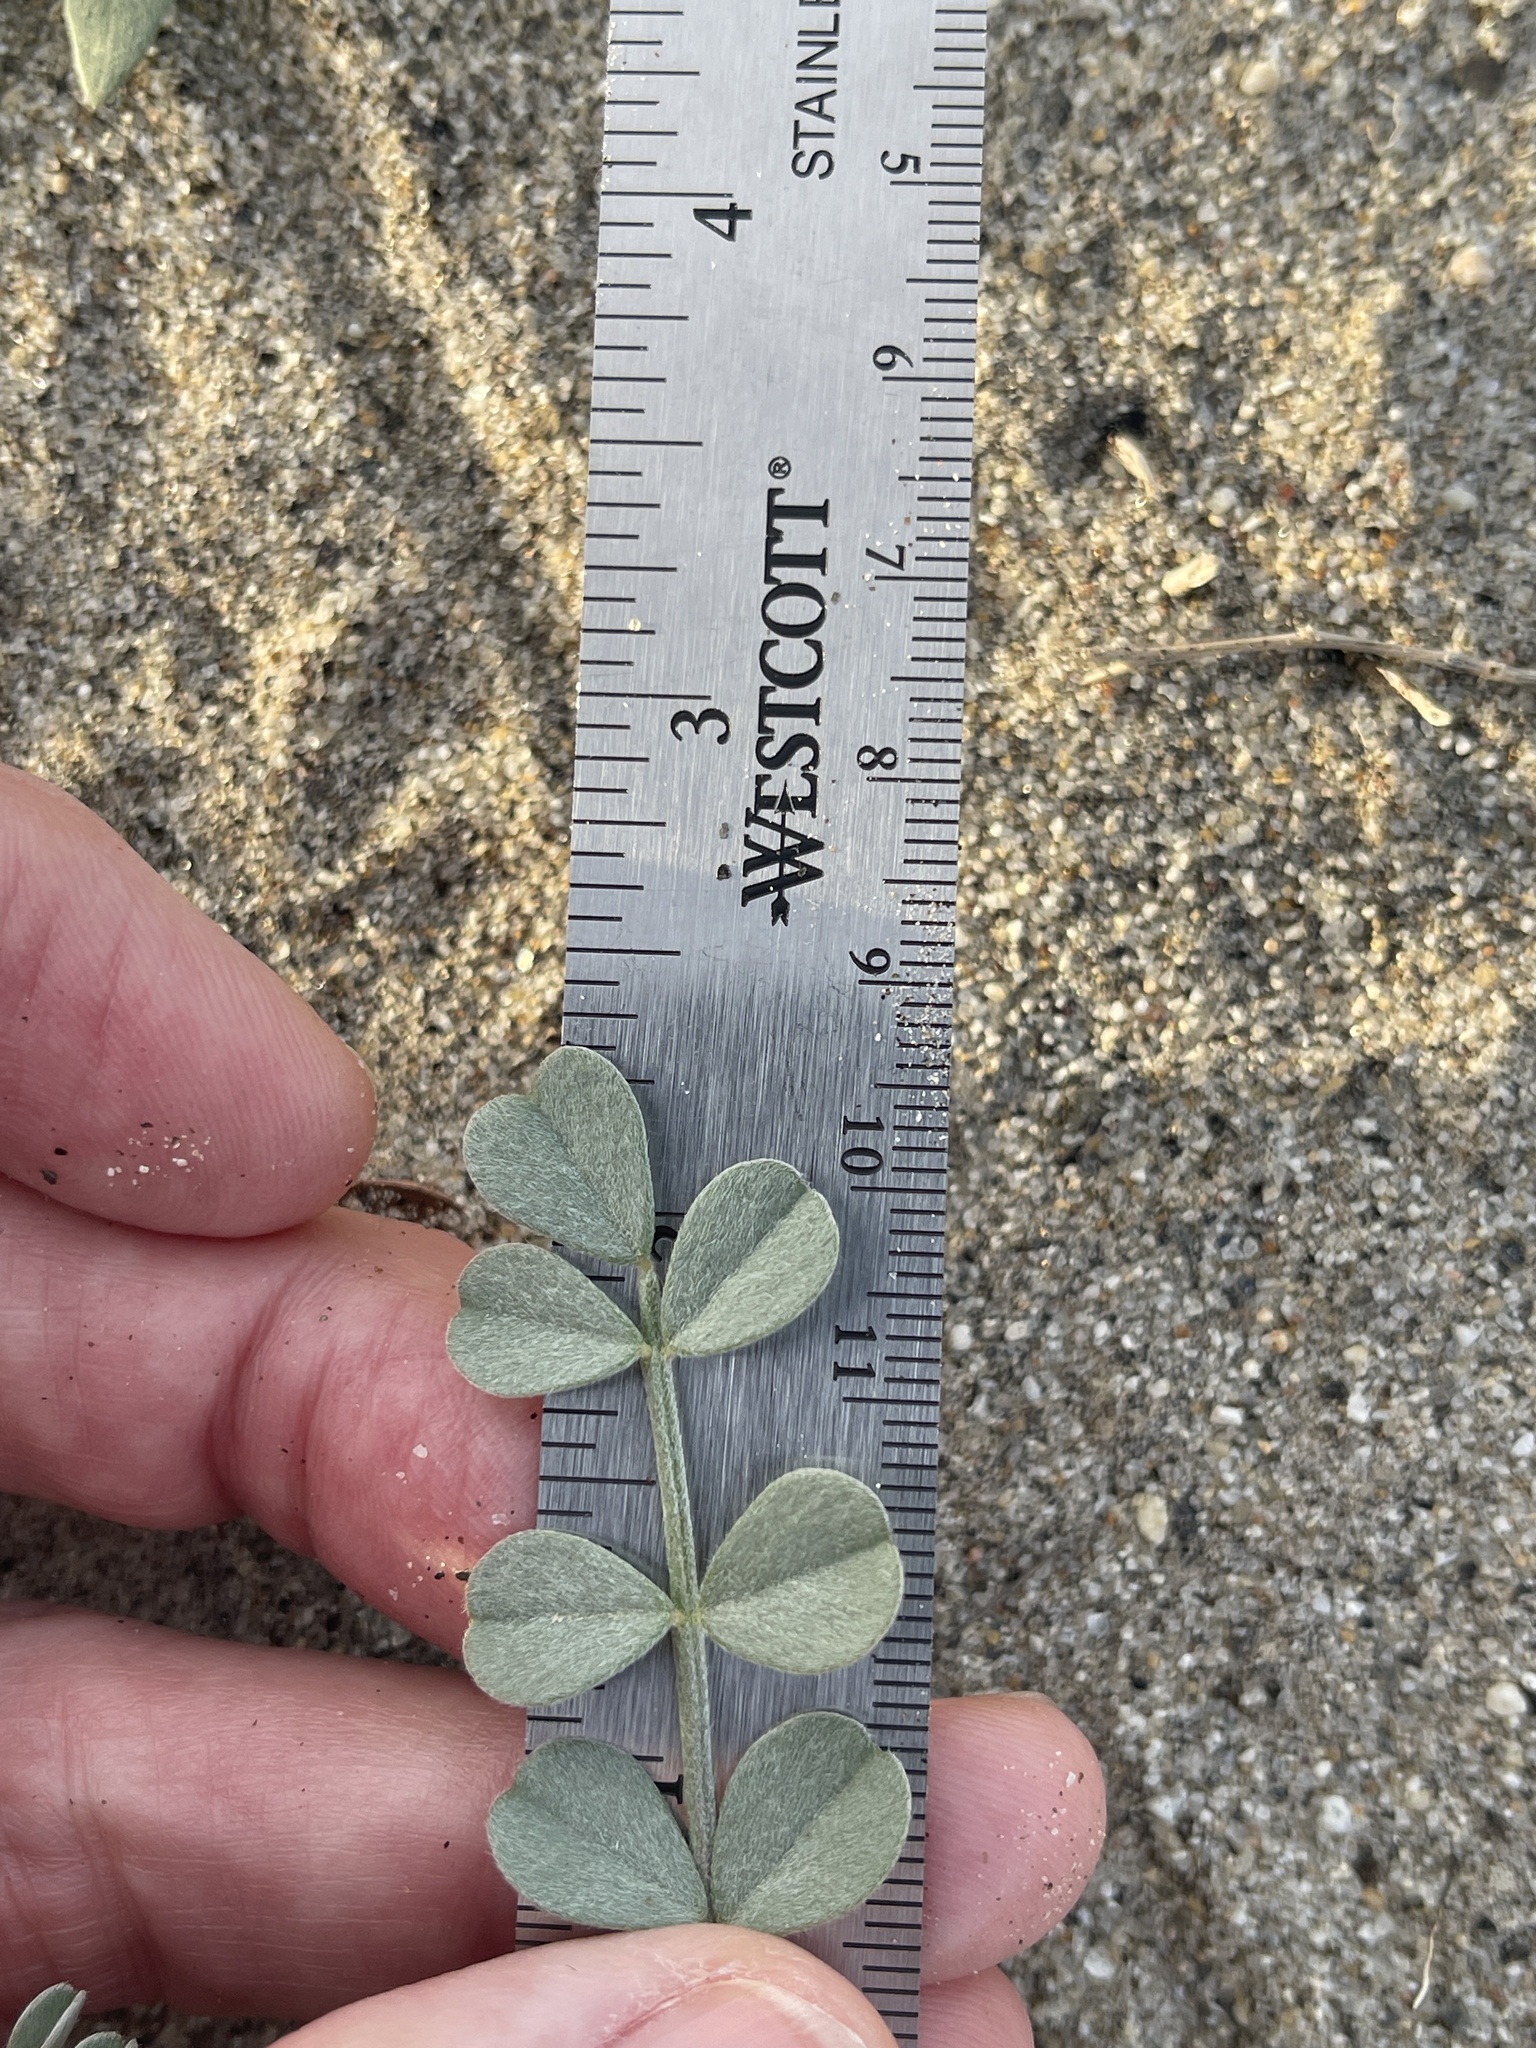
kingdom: Plantae
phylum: Tracheophyta
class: Magnoliopsida
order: Fabales
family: Fabaceae
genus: Astragalus
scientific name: Astragalus lentiginosus
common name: Freckled milkvetch
